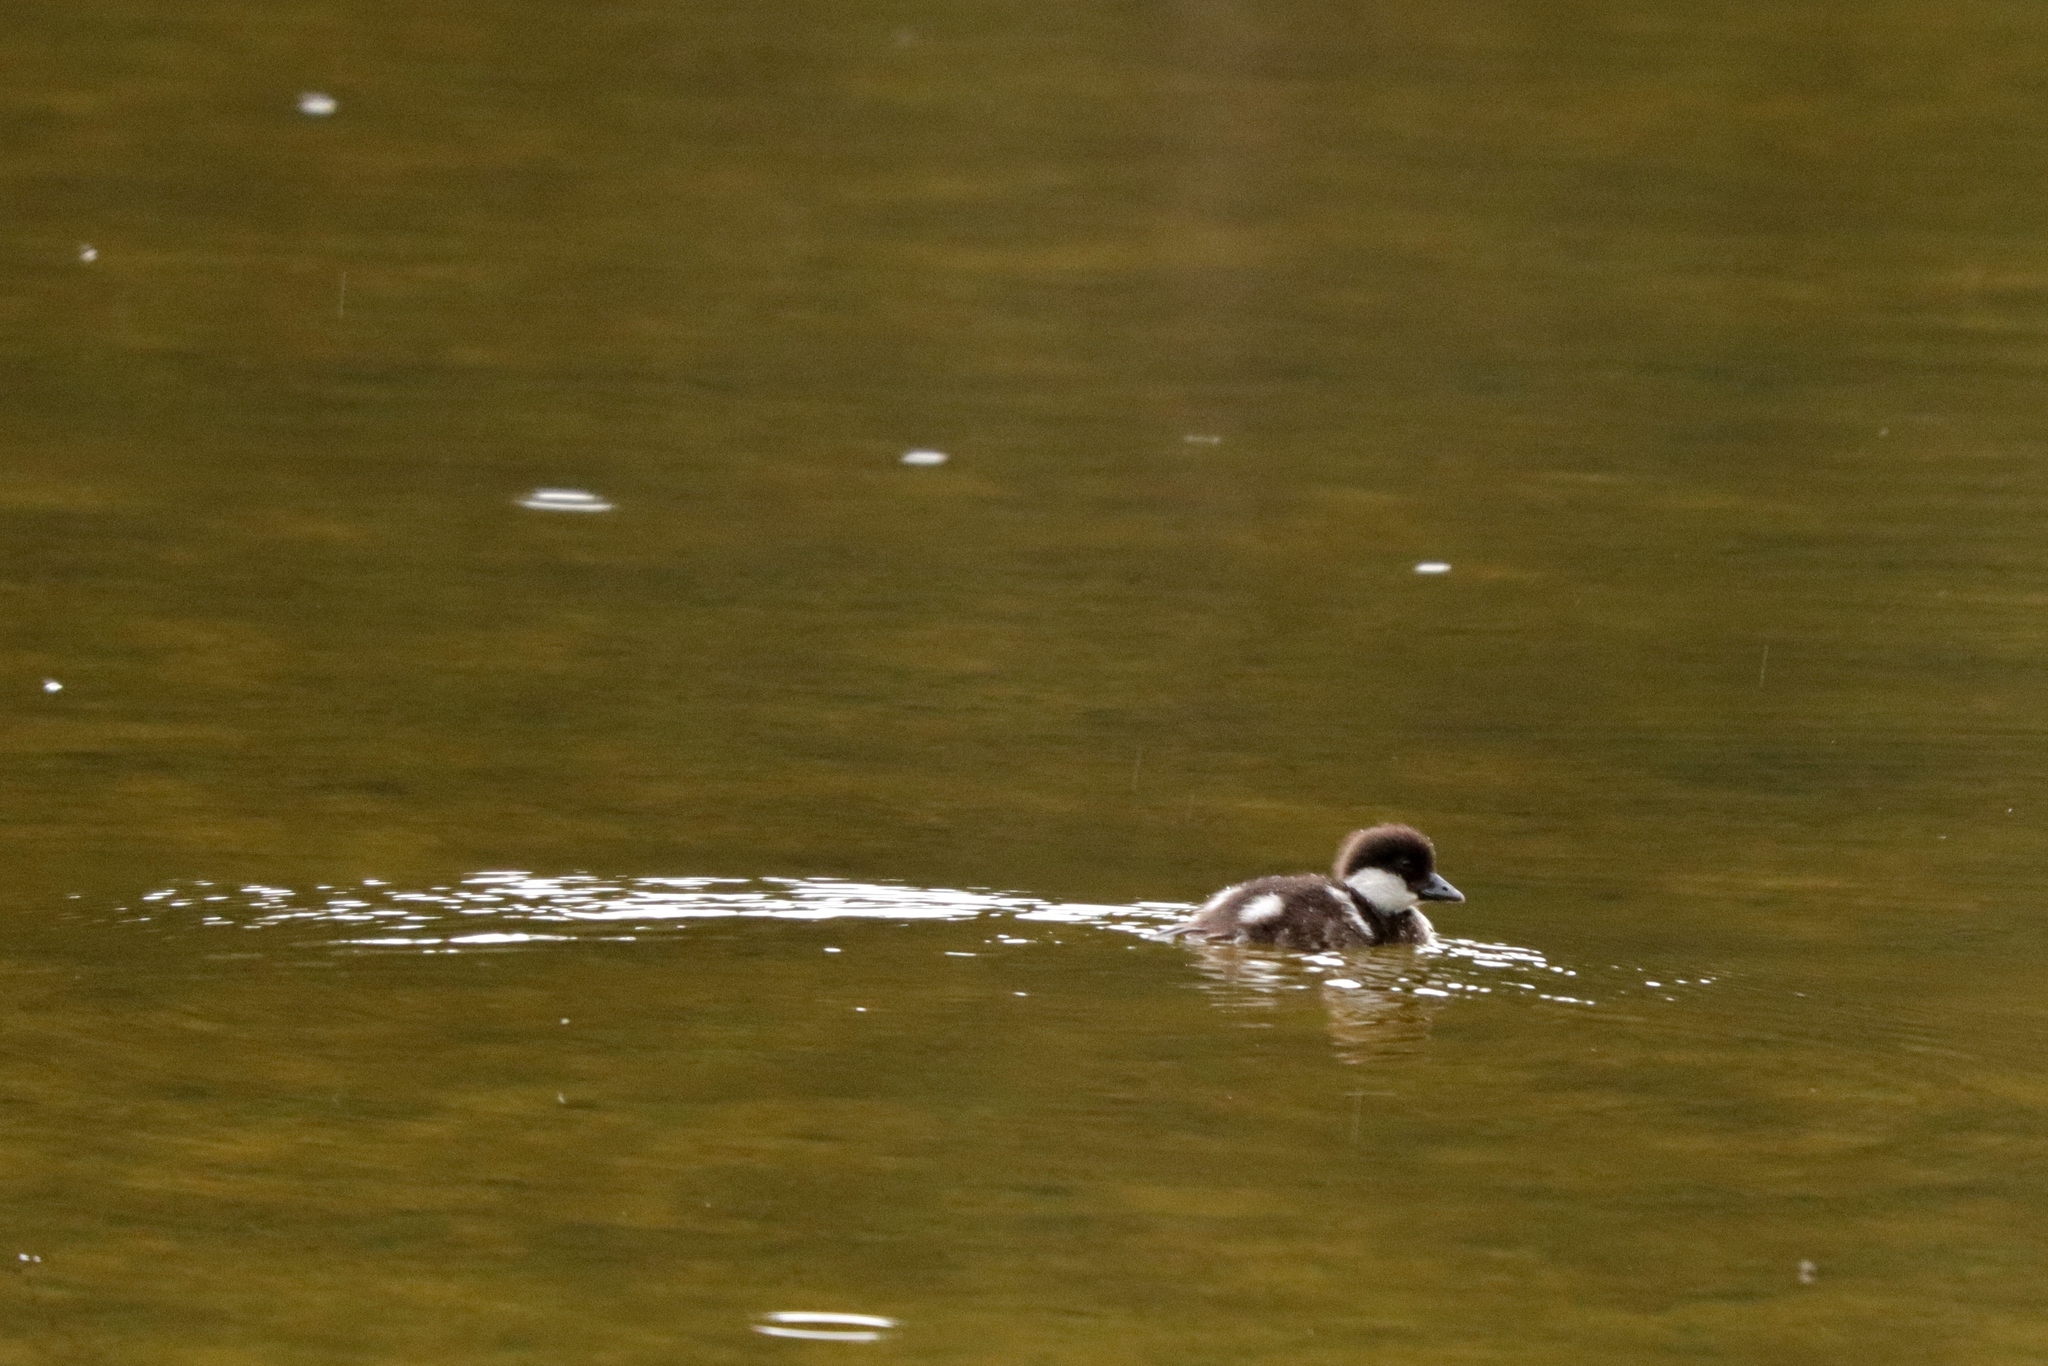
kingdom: Animalia
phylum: Chordata
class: Aves
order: Anseriformes
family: Anatidae
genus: Bucephala
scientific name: Bucephala albeola
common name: Bufflehead
